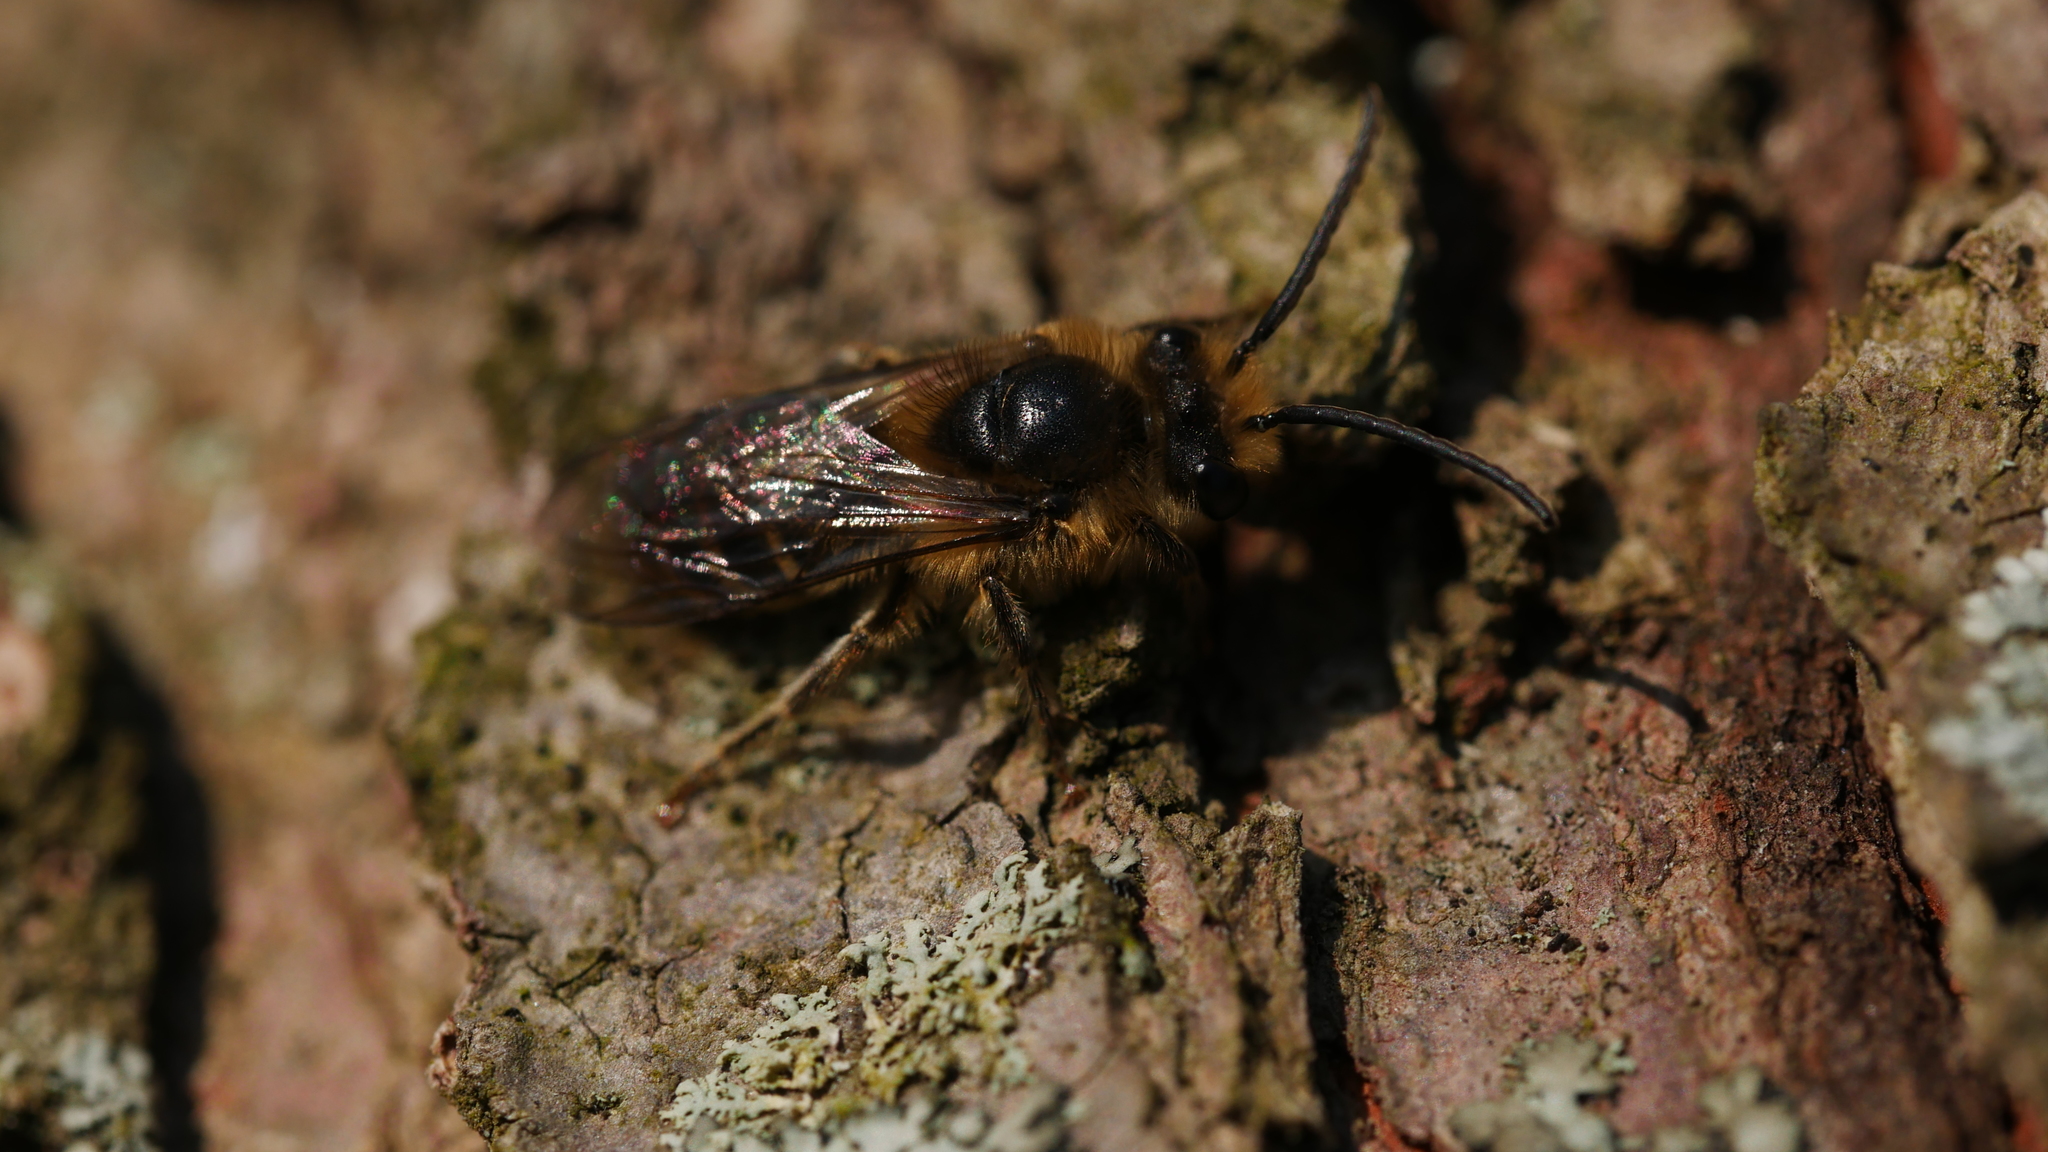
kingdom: Animalia
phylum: Arthropoda
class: Insecta
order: Hymenoptera
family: Colletidae
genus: Colletes
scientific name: Colletes inaequalis
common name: Unequal cellophane bee
